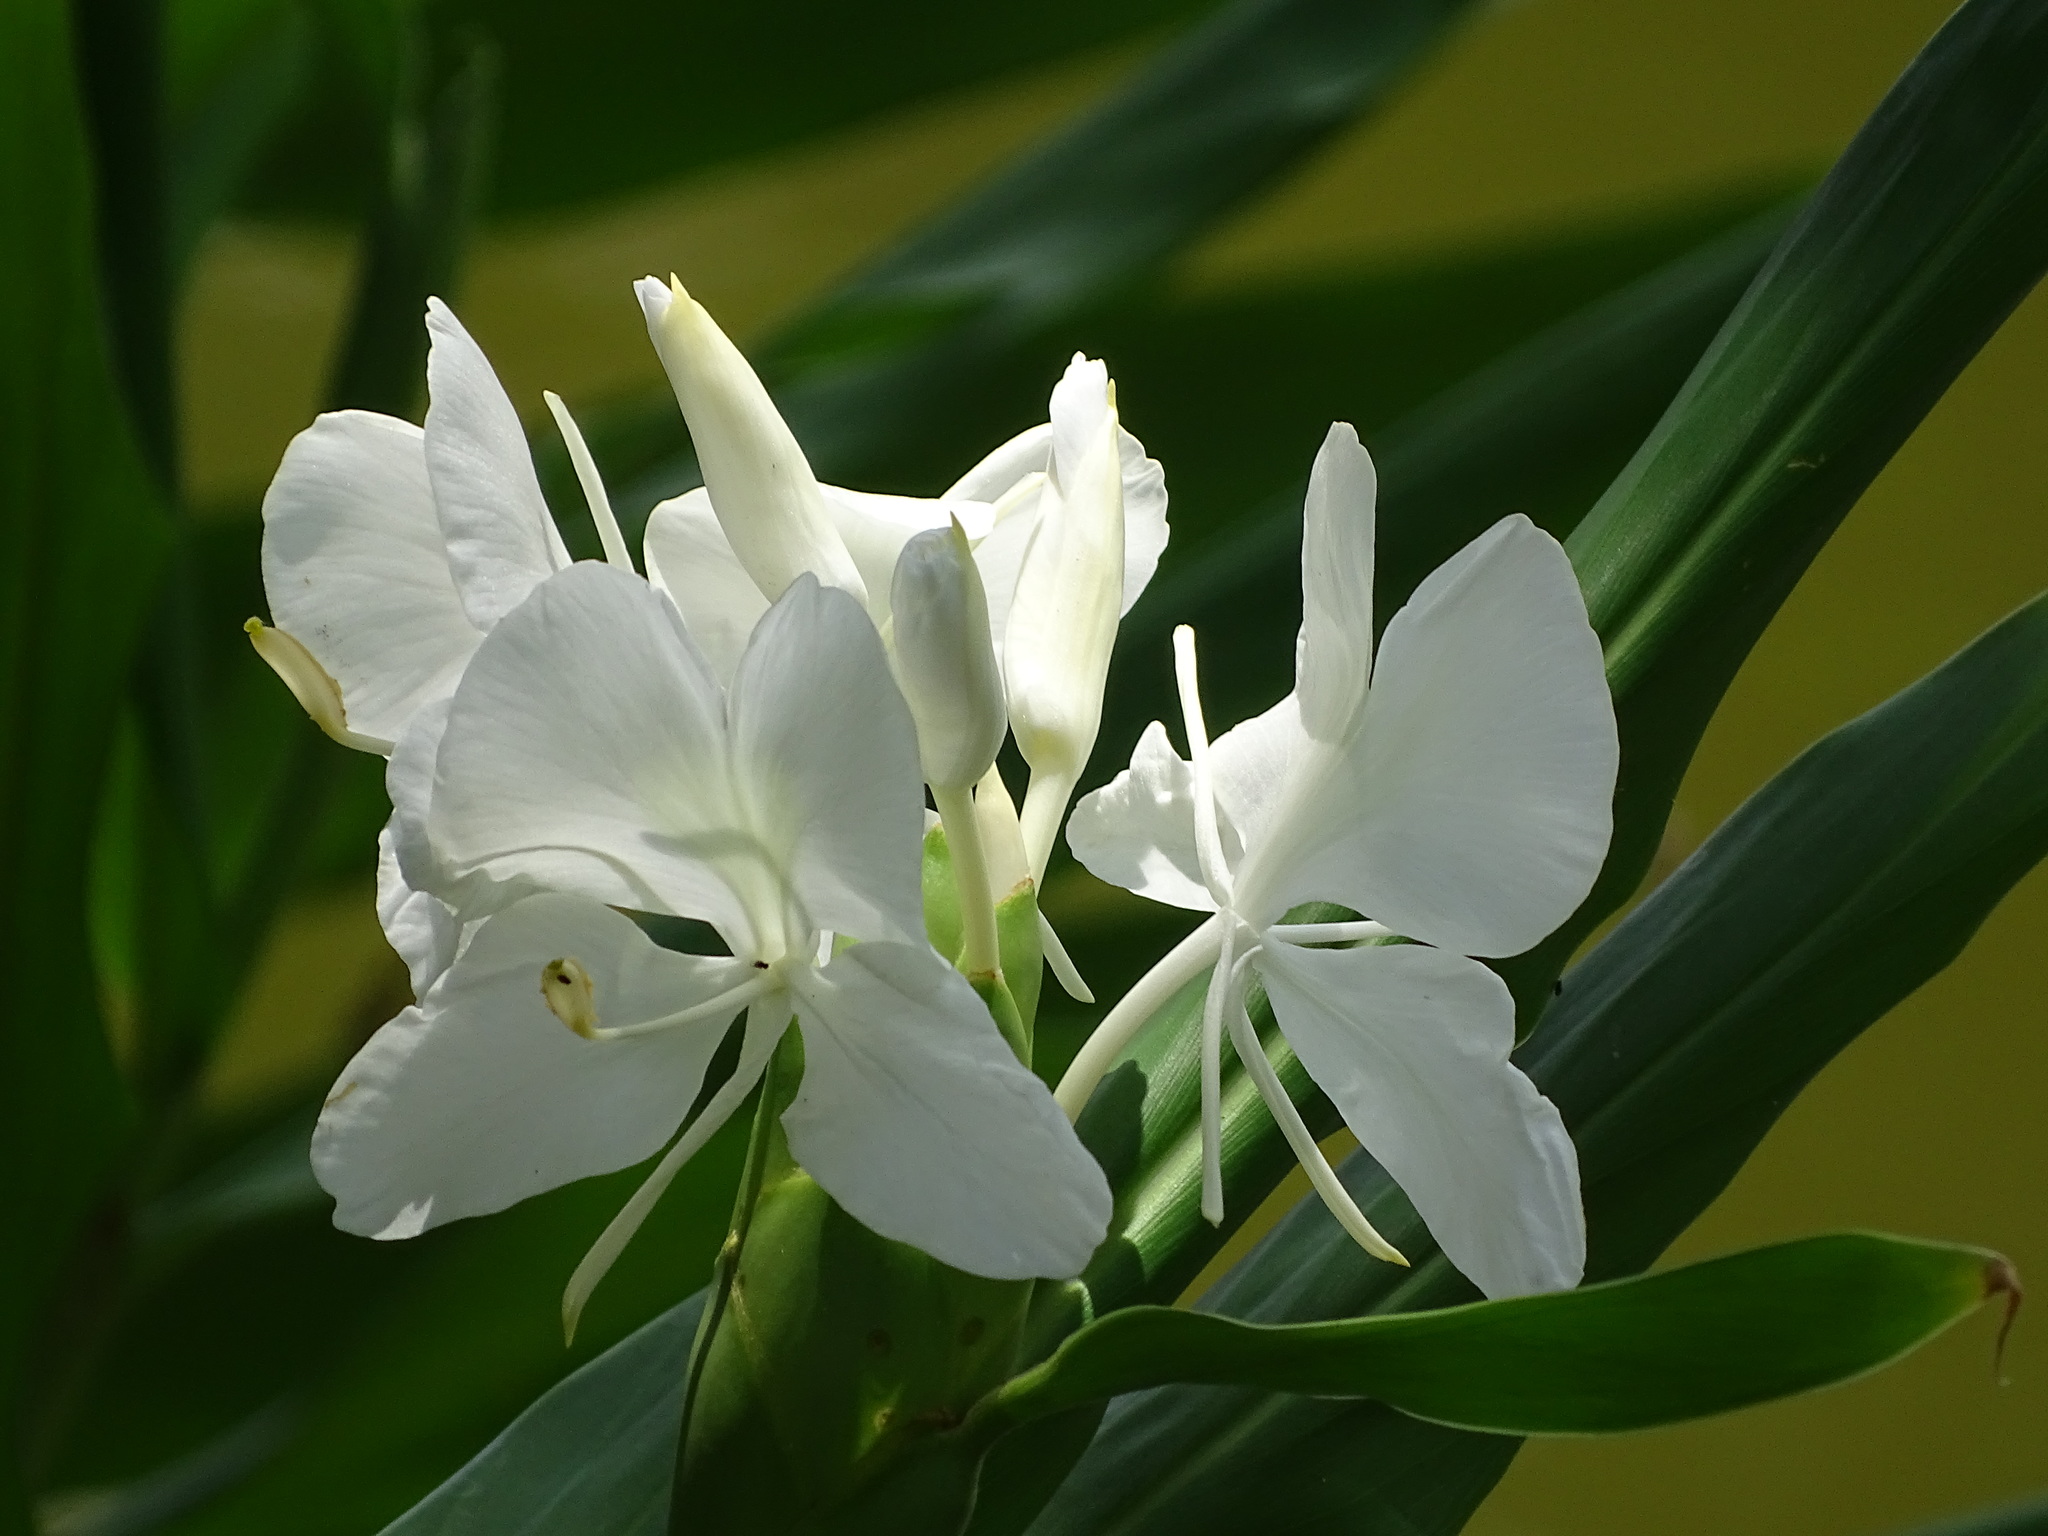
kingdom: Plantae
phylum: Tracheophyta
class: Liliopsida
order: Zingiberales
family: Zingiberaceae
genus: Hedychium
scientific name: Hedychium coronarium
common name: White garland-lily
